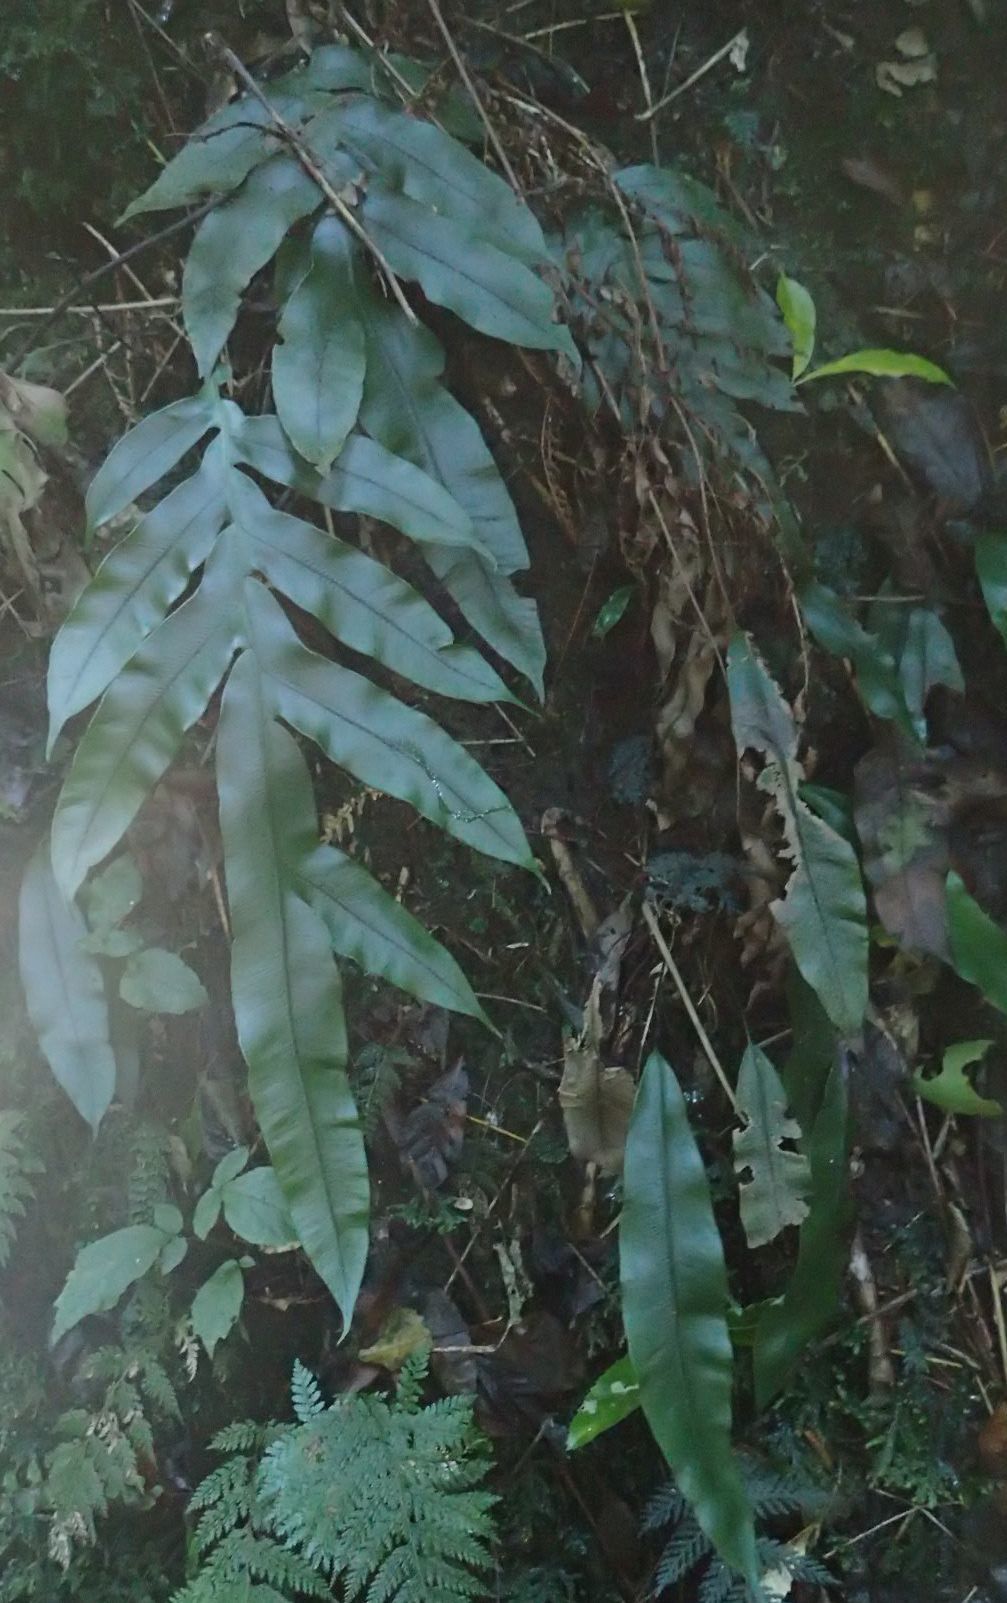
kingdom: Plantae
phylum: Tracheophyta
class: Polypodiopsida
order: Polypodiales
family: Blechnaceae
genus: Austroblechnum
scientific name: Austroblechnum colensoi
